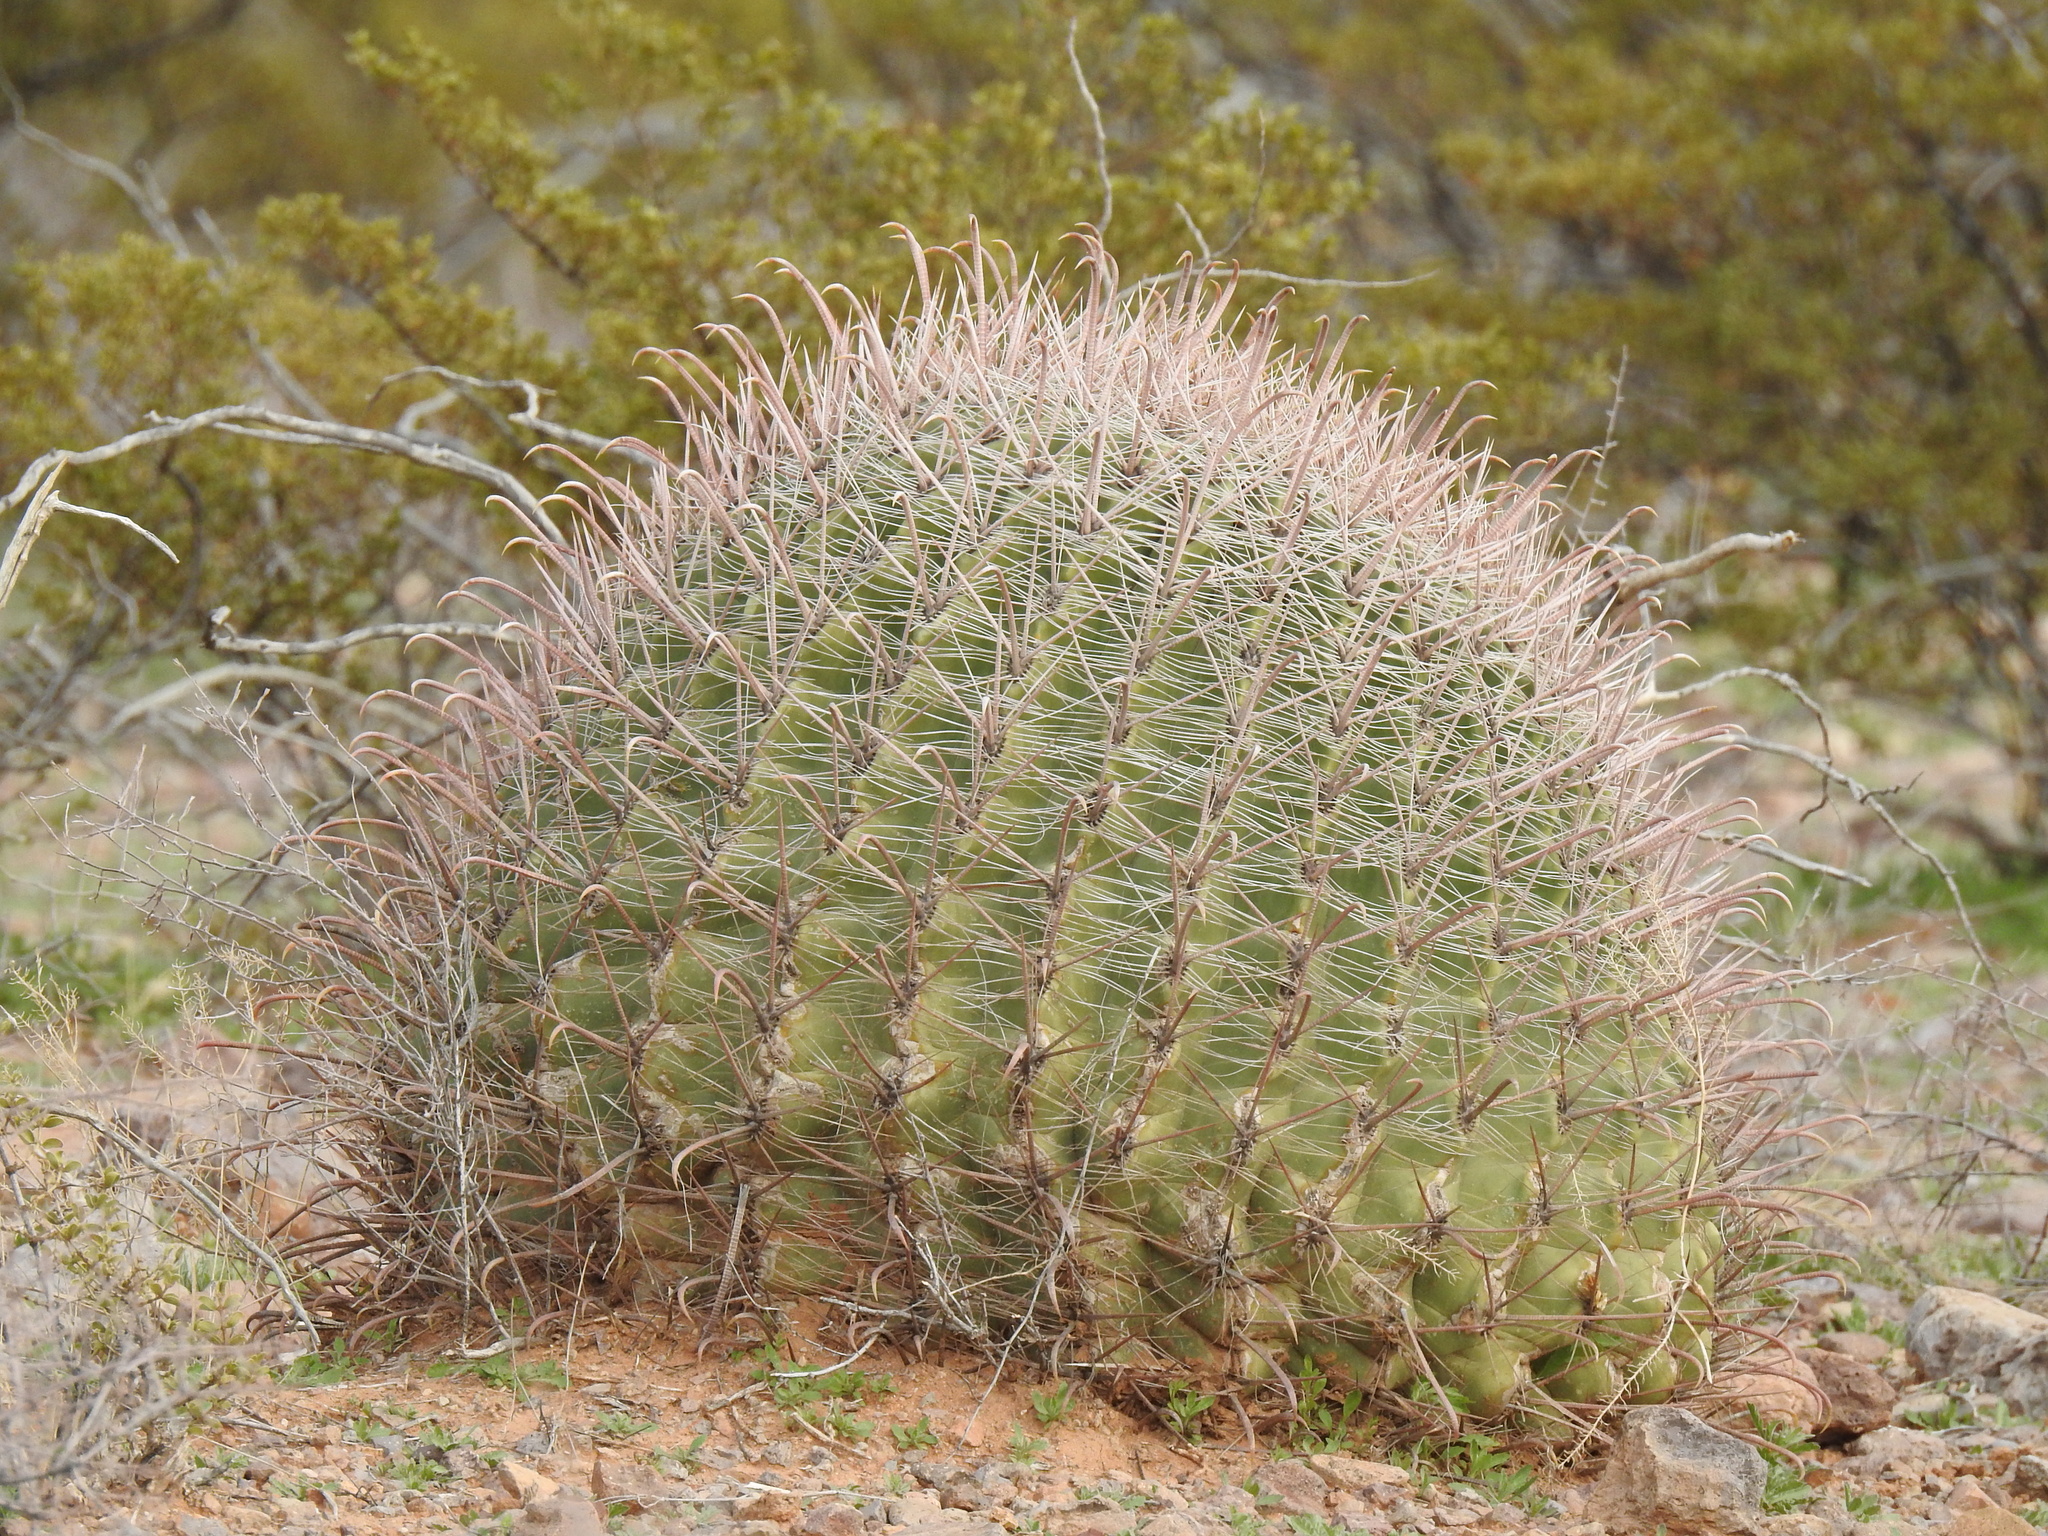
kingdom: Plantae
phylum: Tracheophyta
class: Magnoliopsida
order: Caryophyllales
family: Cactaceae
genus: Ferocactus
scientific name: Ferocactus wislizeni
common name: Candy barrel cactus
